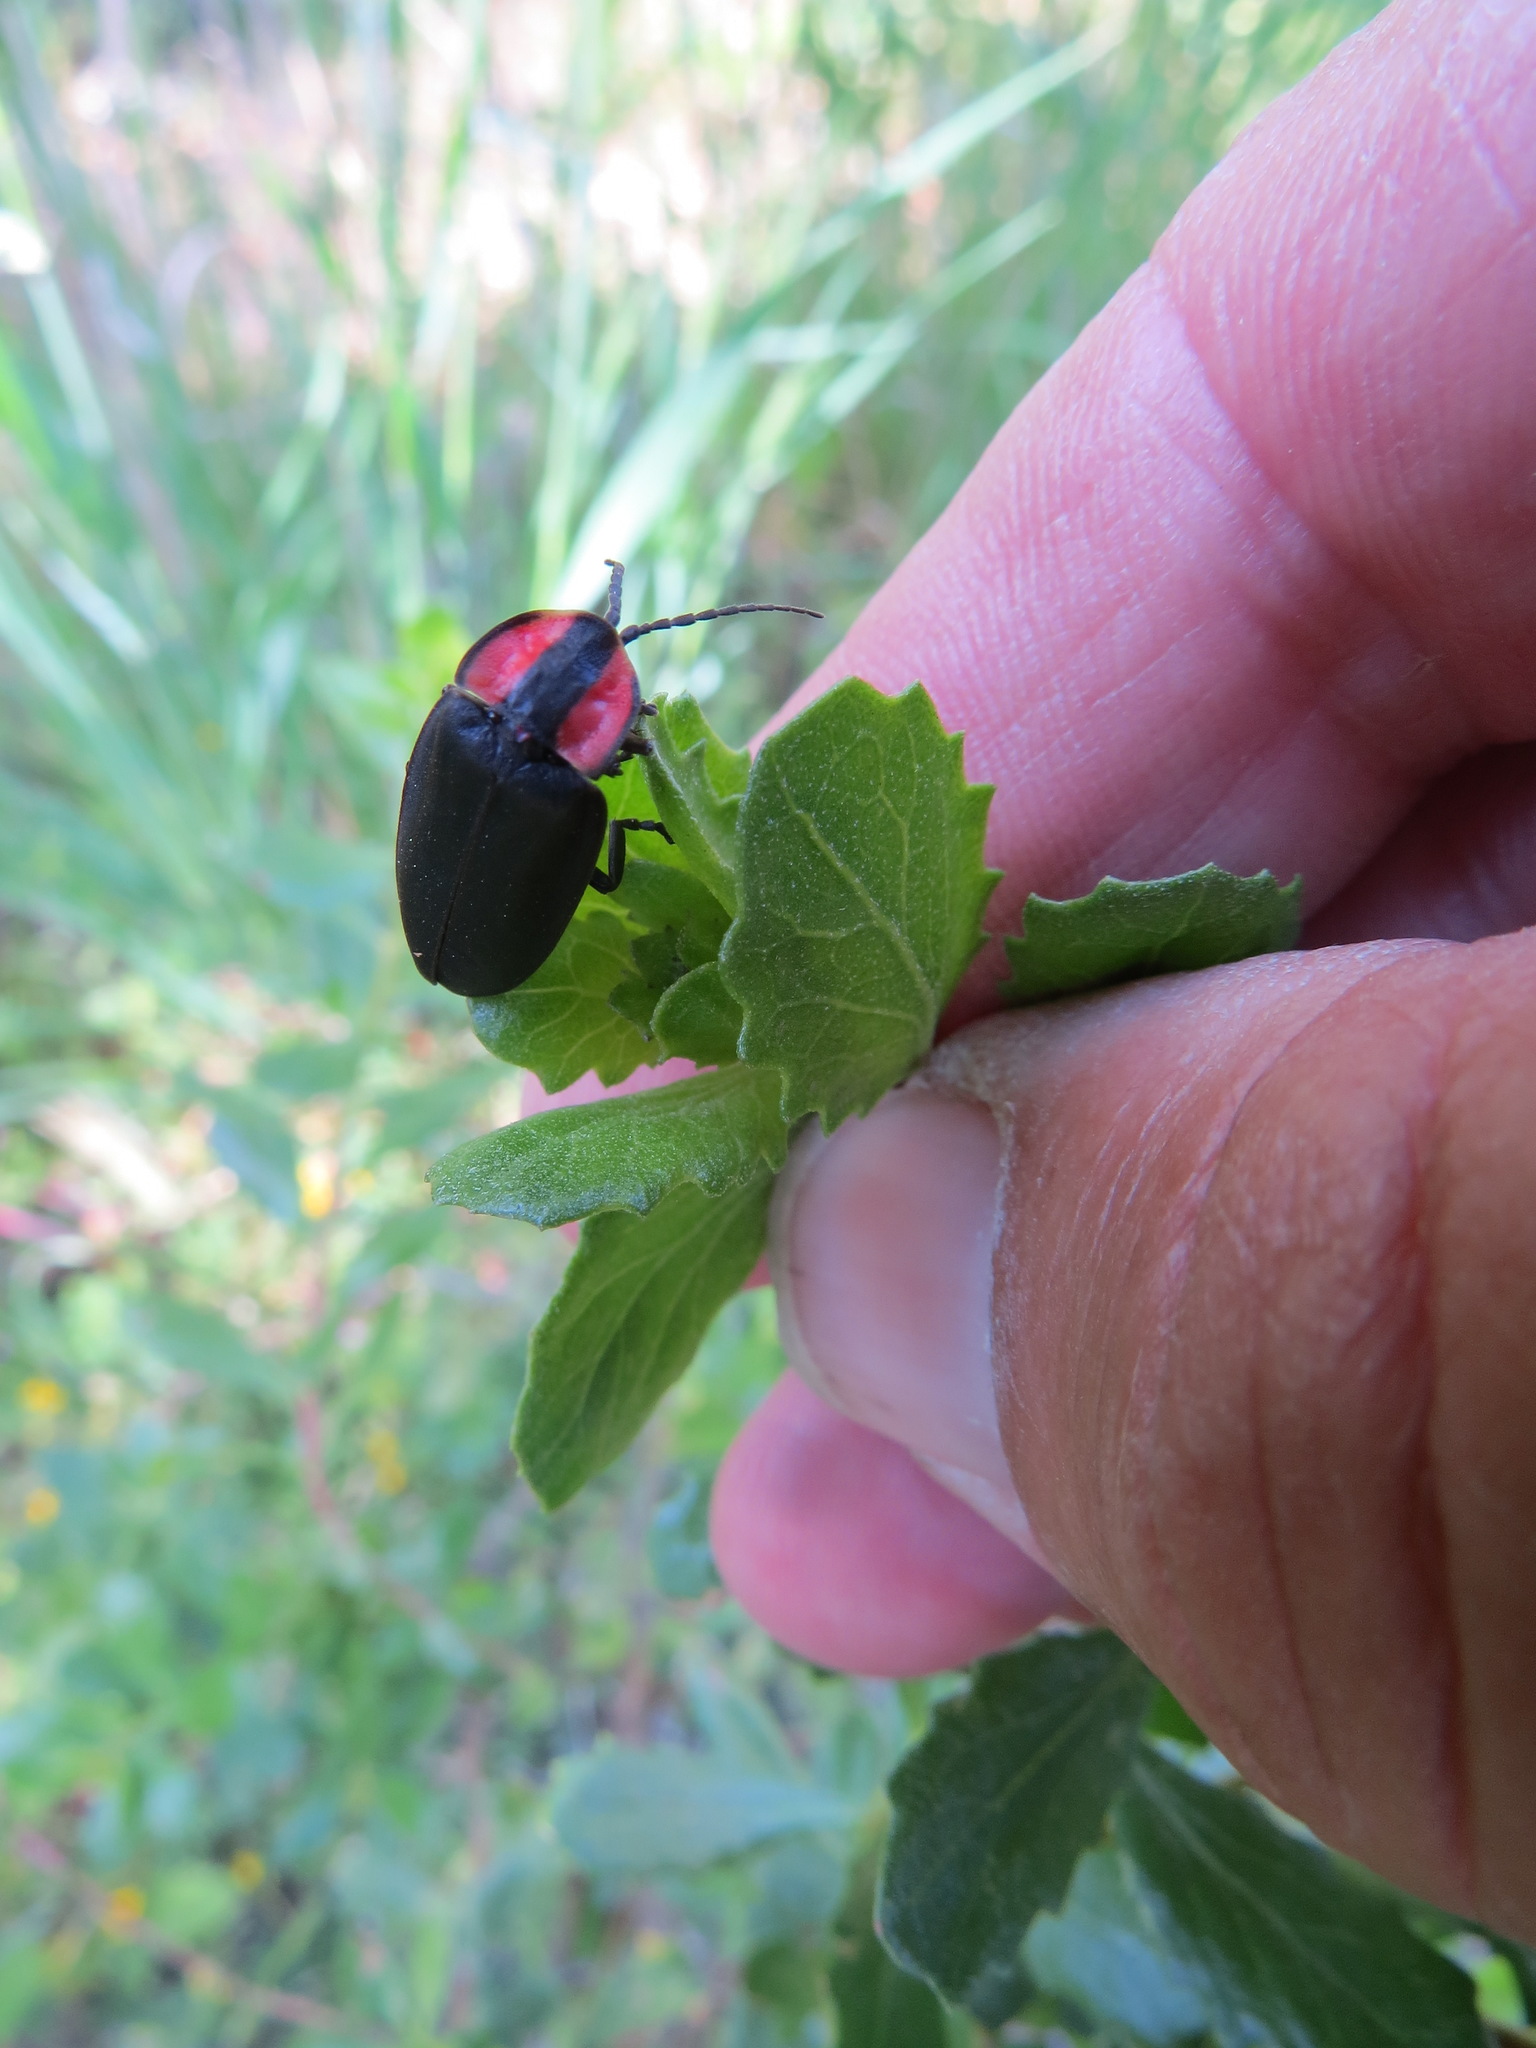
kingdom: Animalia
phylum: Arthropoda
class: Insecta
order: Coleoptera
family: Lampyridae
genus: Ellychnia
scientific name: Ellychnia megista
